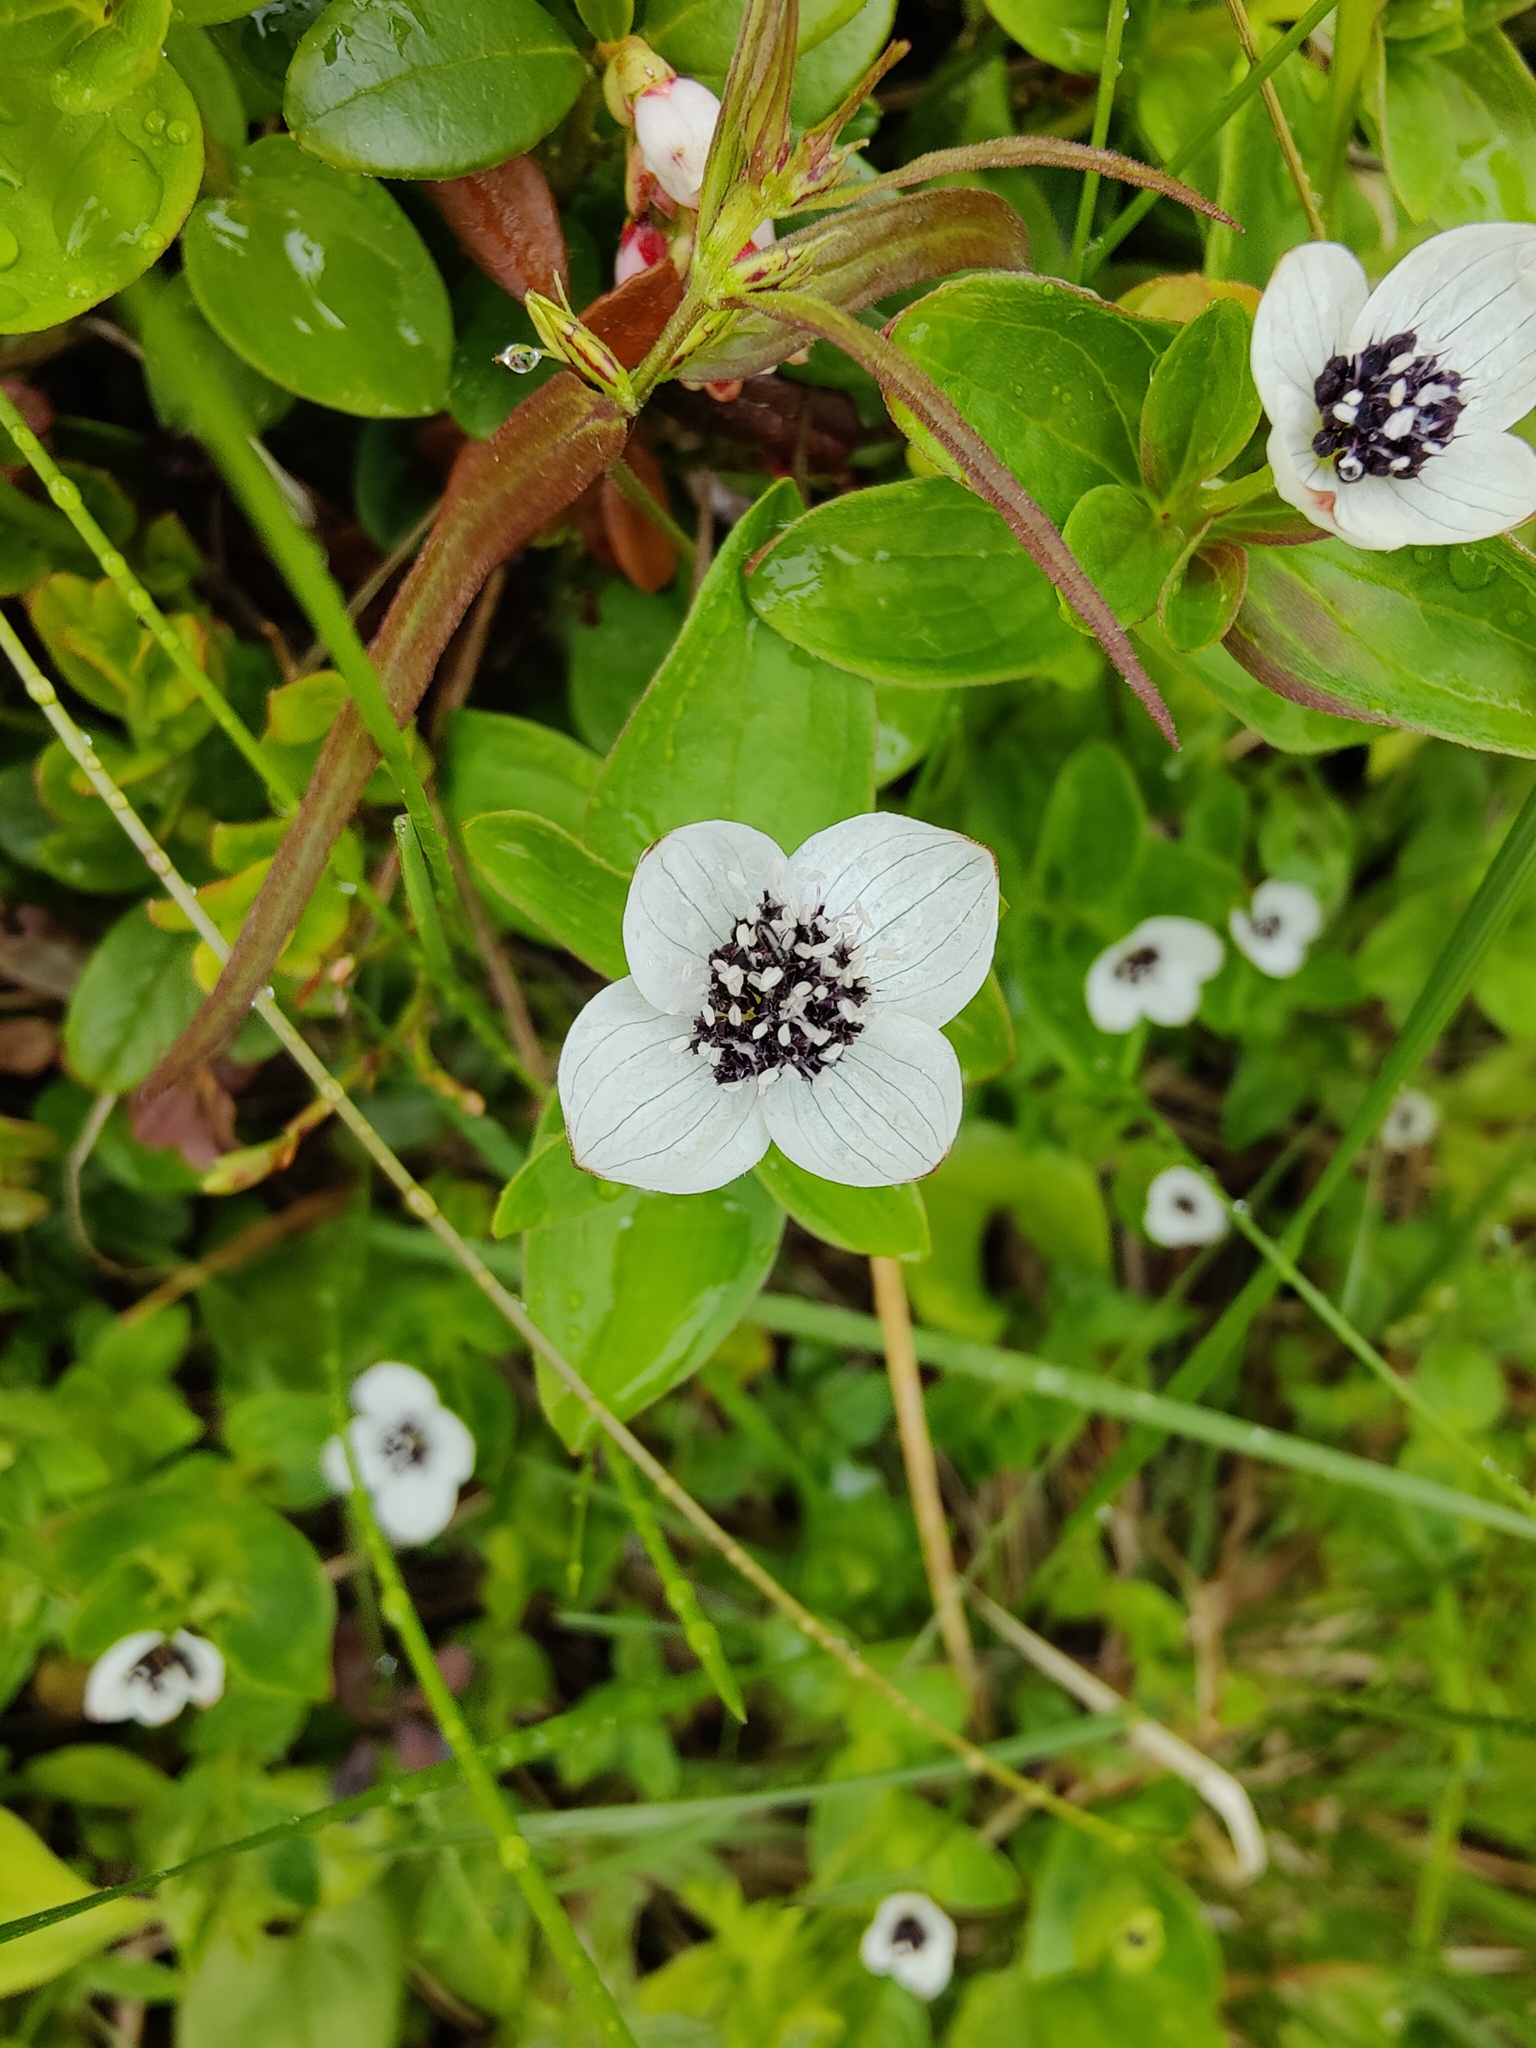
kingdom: Plantae
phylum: Tracheophyta
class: Magnoliopsida
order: Cornales
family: Cornaceae
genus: Cornus
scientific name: Cornus suecica
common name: Dwarf cornel
